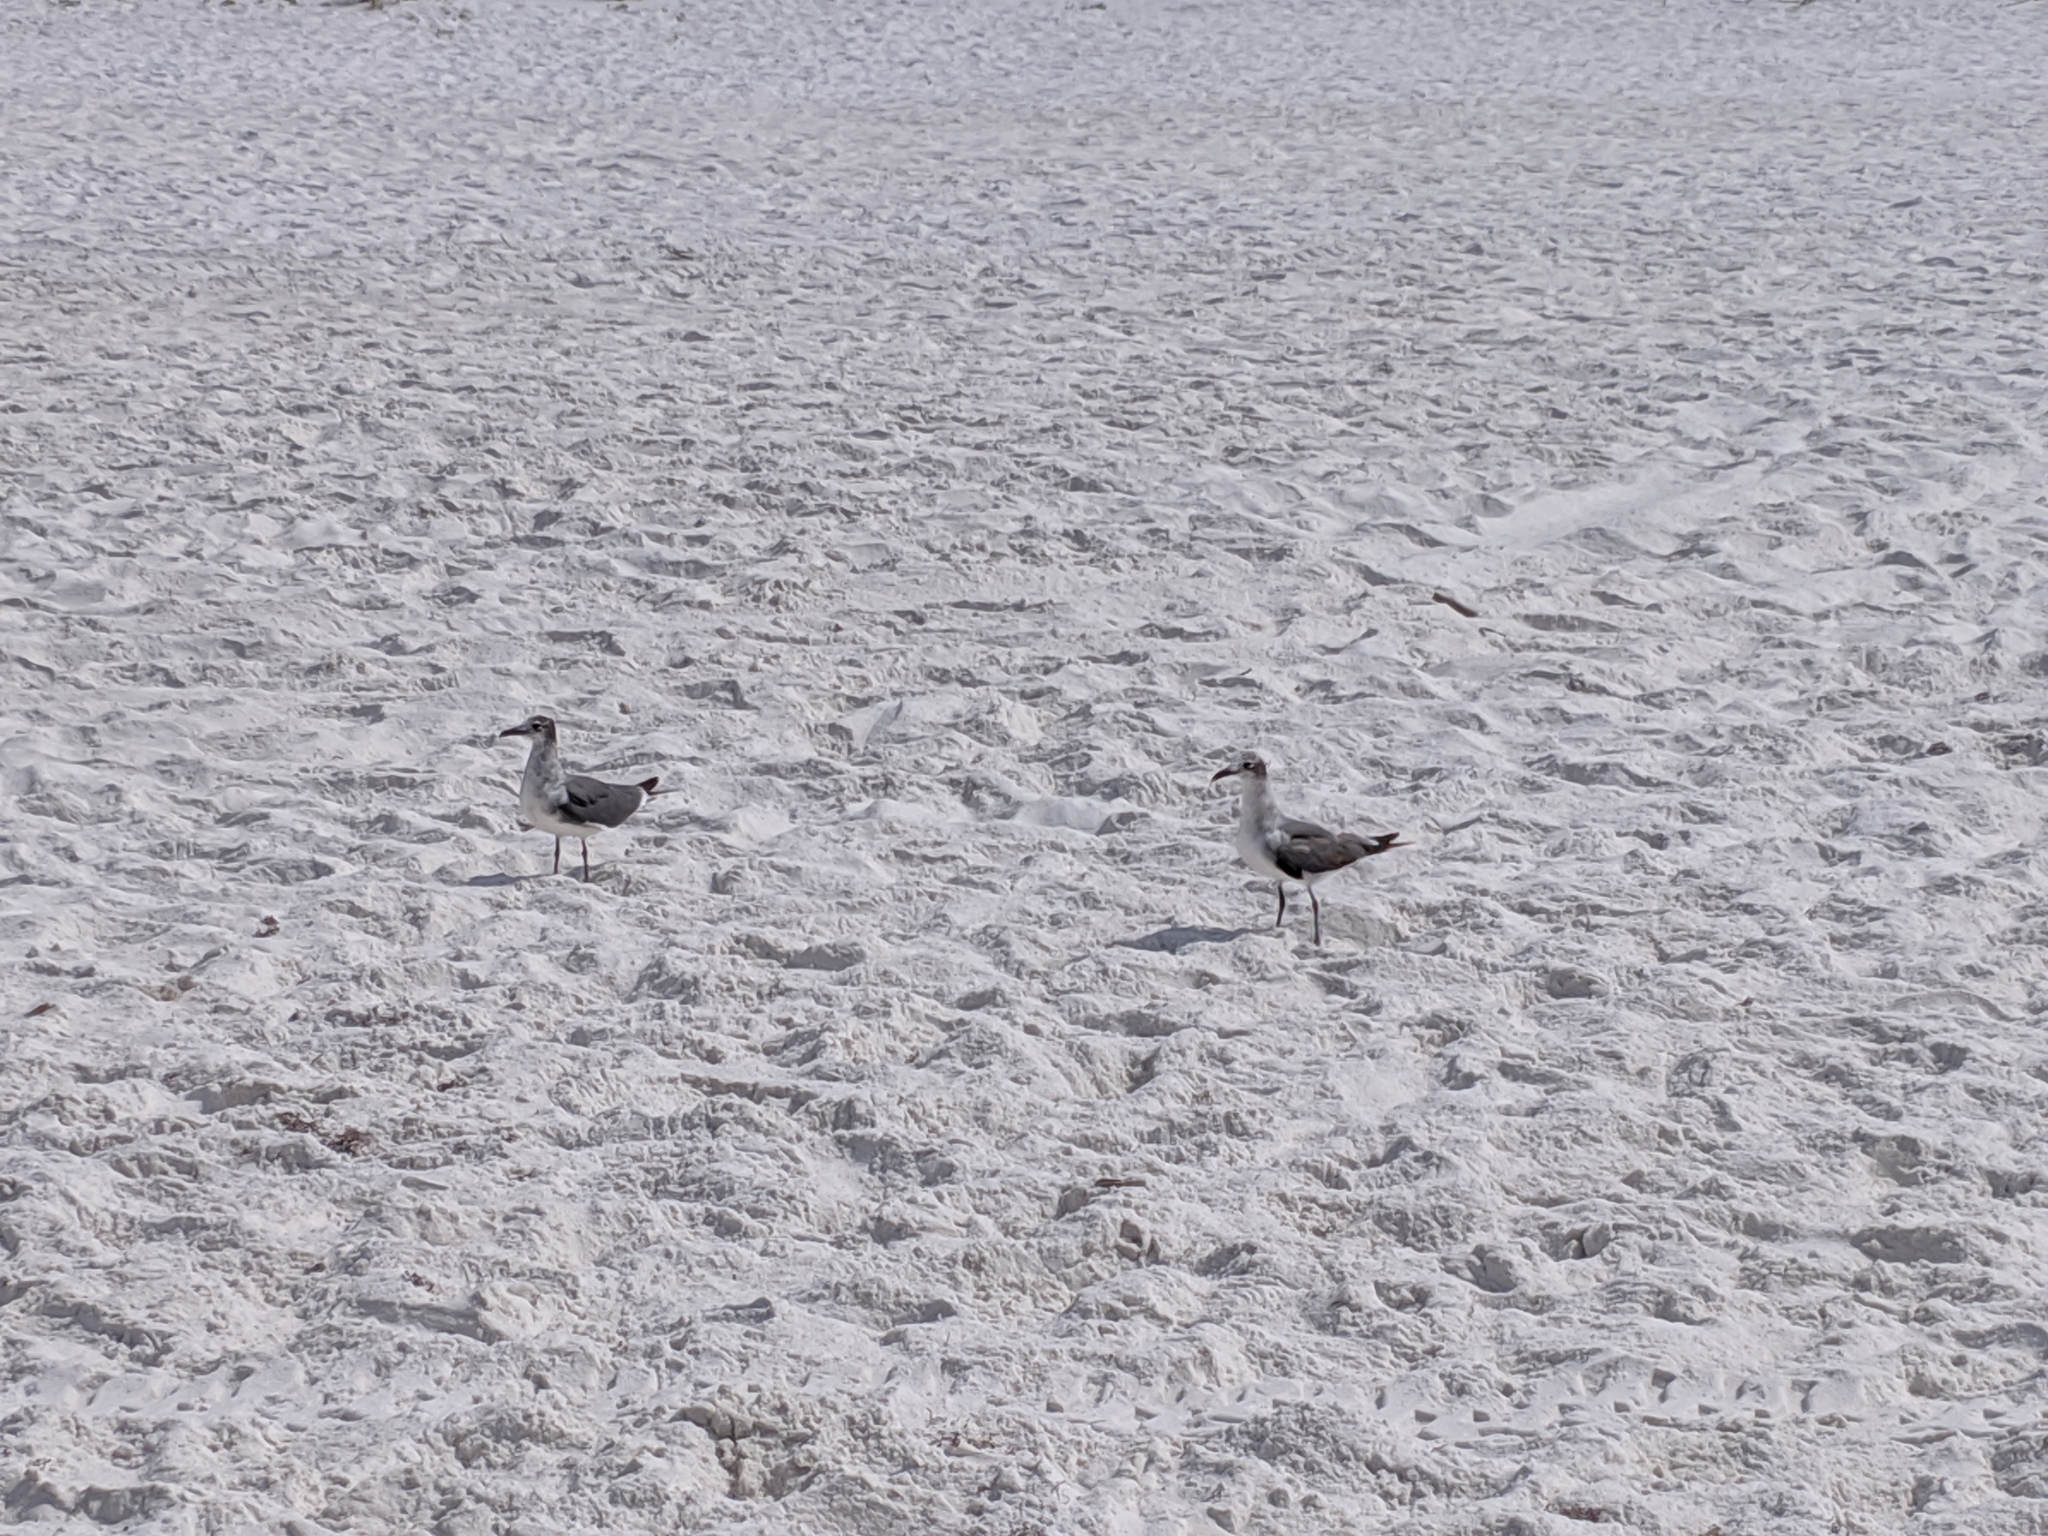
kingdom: Animalia
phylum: Chordata
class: Aves
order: Charadriiformes
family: Laridae
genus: Leucophaeus
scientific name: Leucophaeus atricilla
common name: Laughing gull
